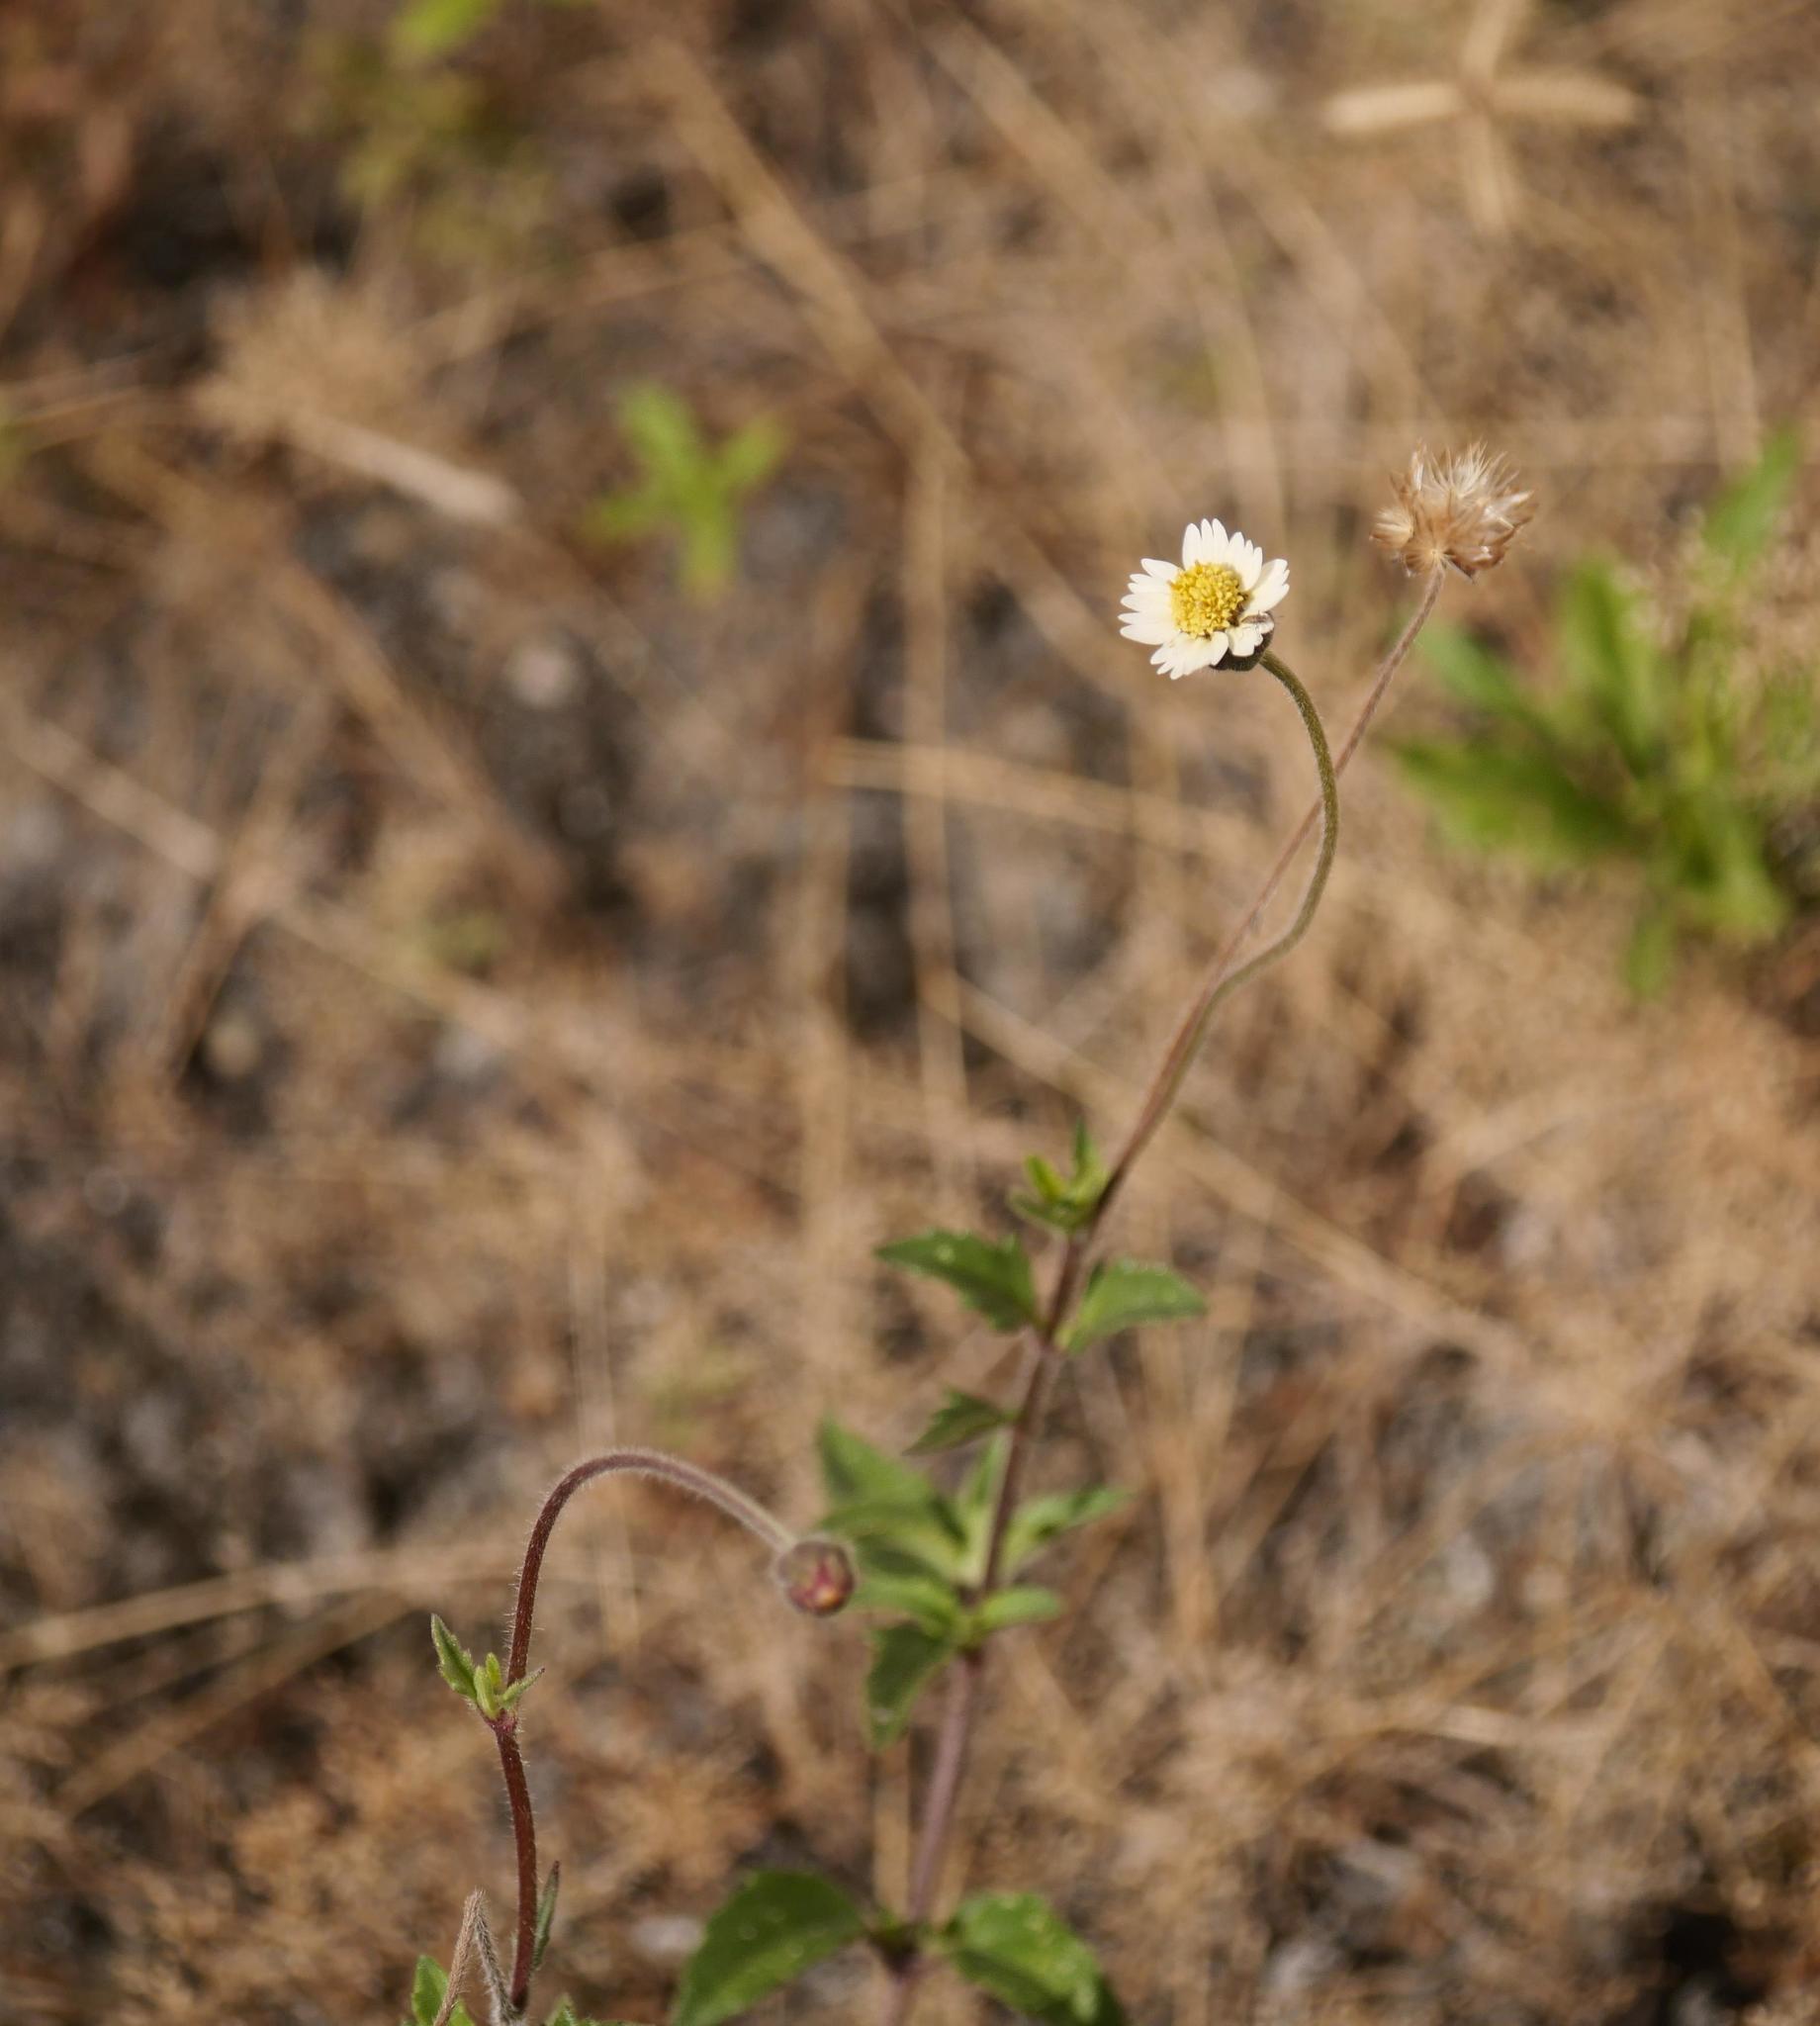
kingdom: Plantae
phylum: Tracheophyta
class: Magnoliopsida
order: Asterales
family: Asteraceae
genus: Tridax
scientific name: Tridax procumbens
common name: Coatbuttons
